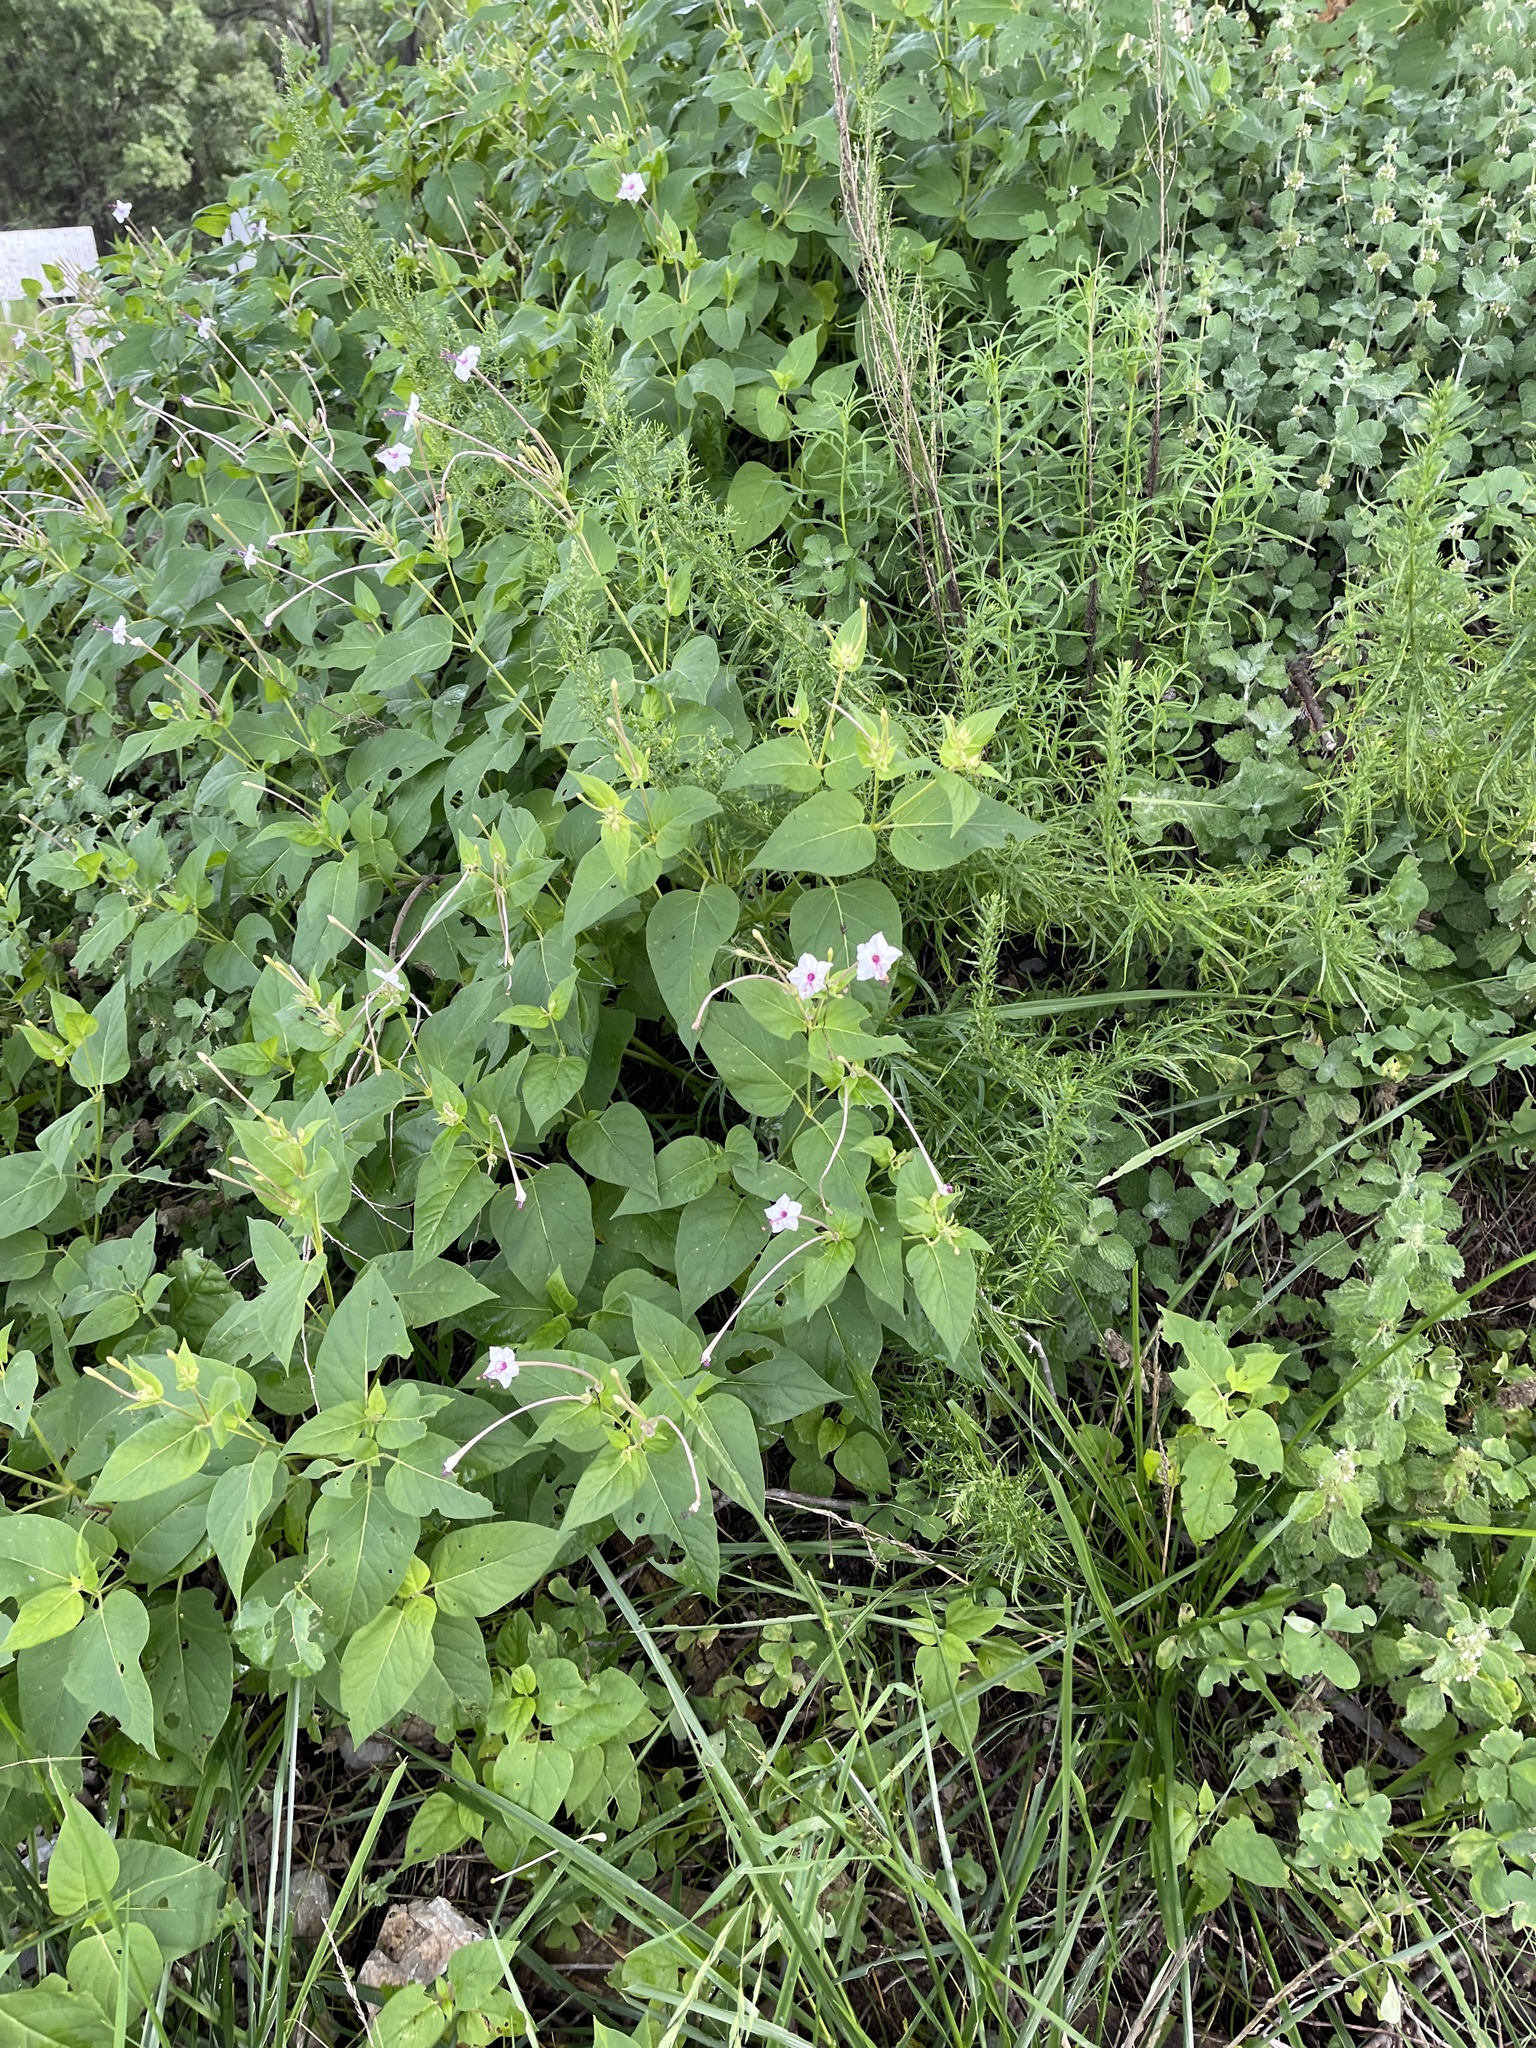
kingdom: Plantae
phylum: Tracheophyta
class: Magnoliopsida
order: Caryophyllales
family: Nyctaginaceae
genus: Mirabilis
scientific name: Mirabilis longiflora
